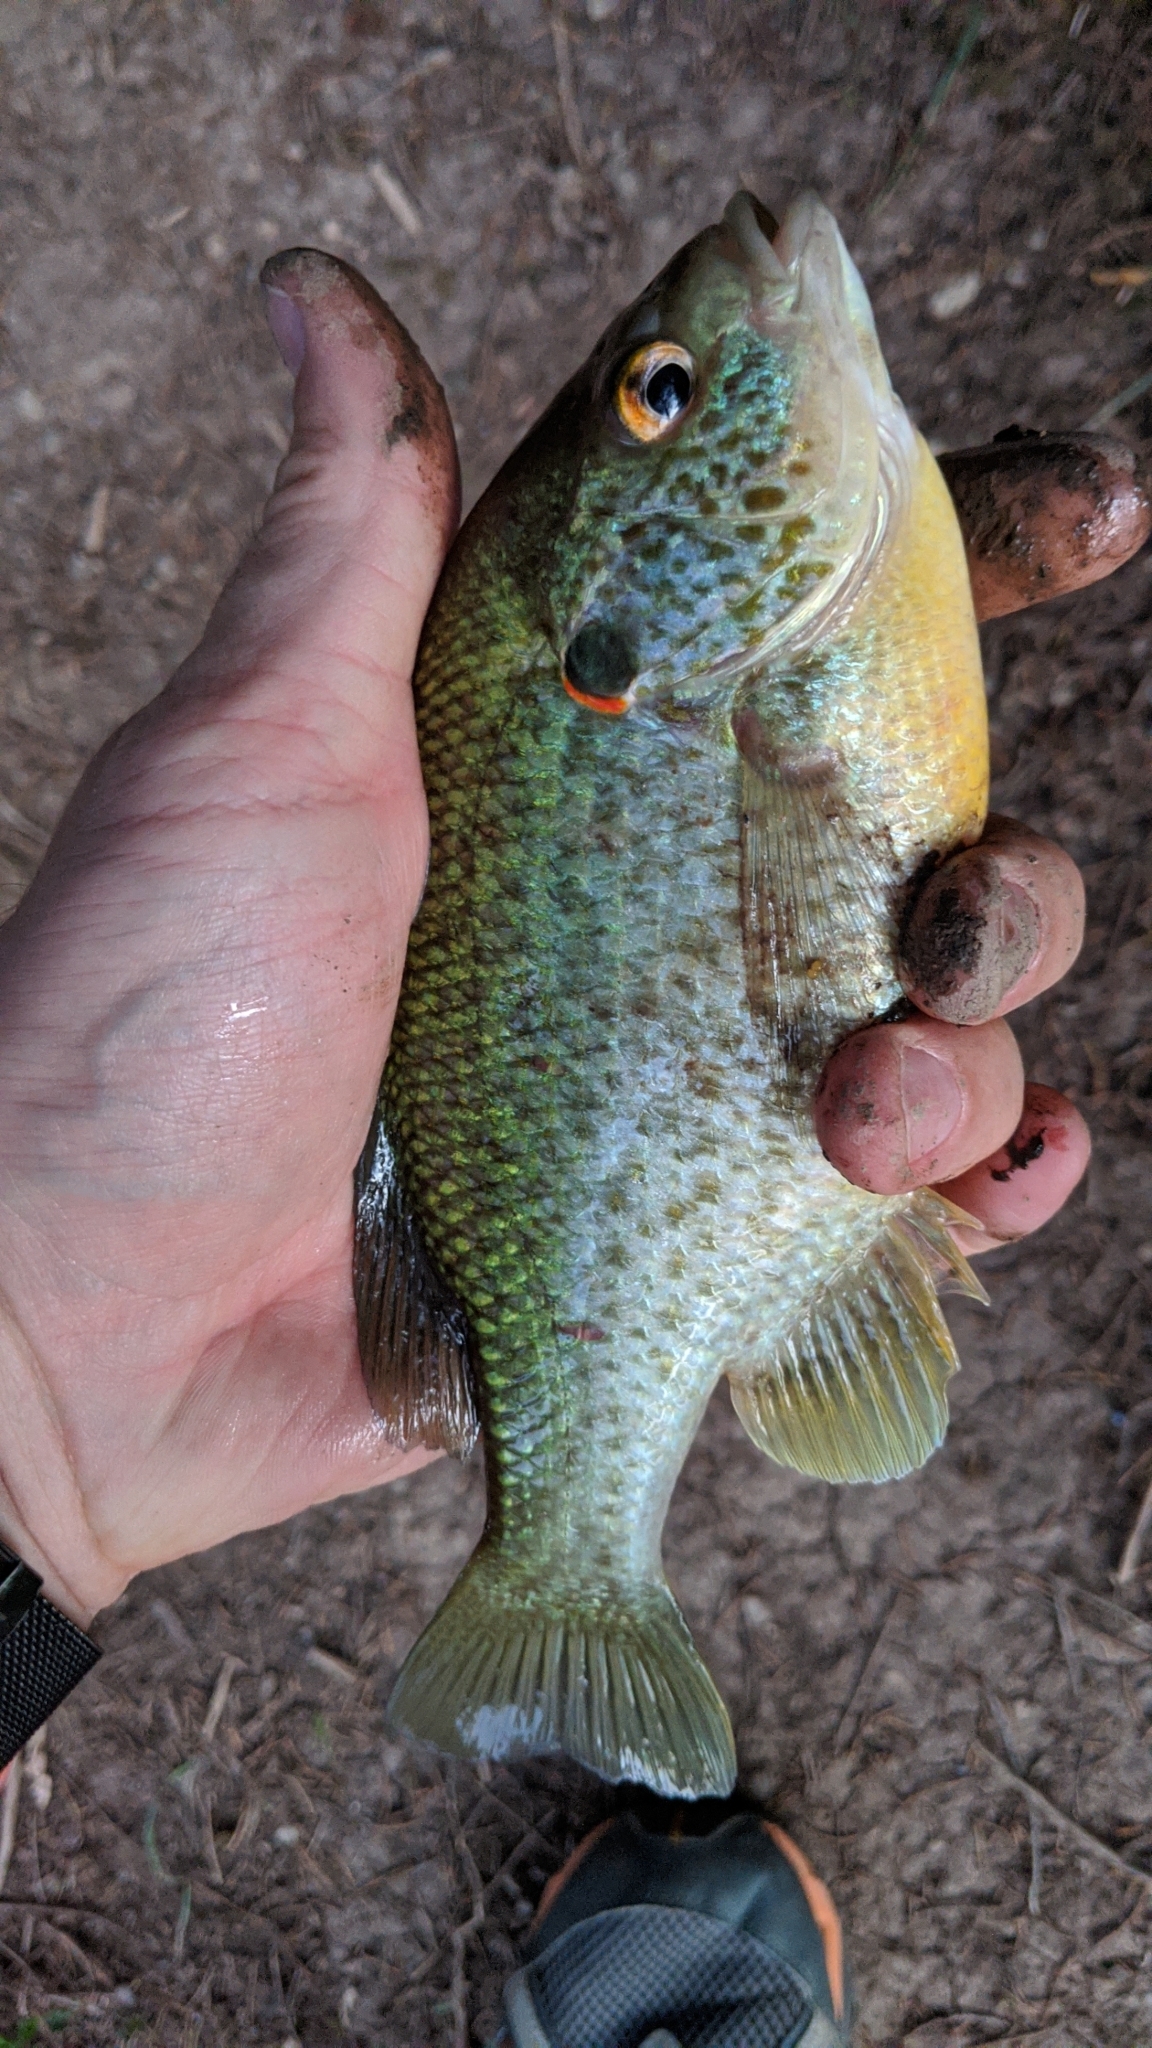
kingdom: Animalia
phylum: Chordata
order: Perciformes
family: Centrarchidae
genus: Lepomis
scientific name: Lepomis microlophus
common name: Redear sunfish
